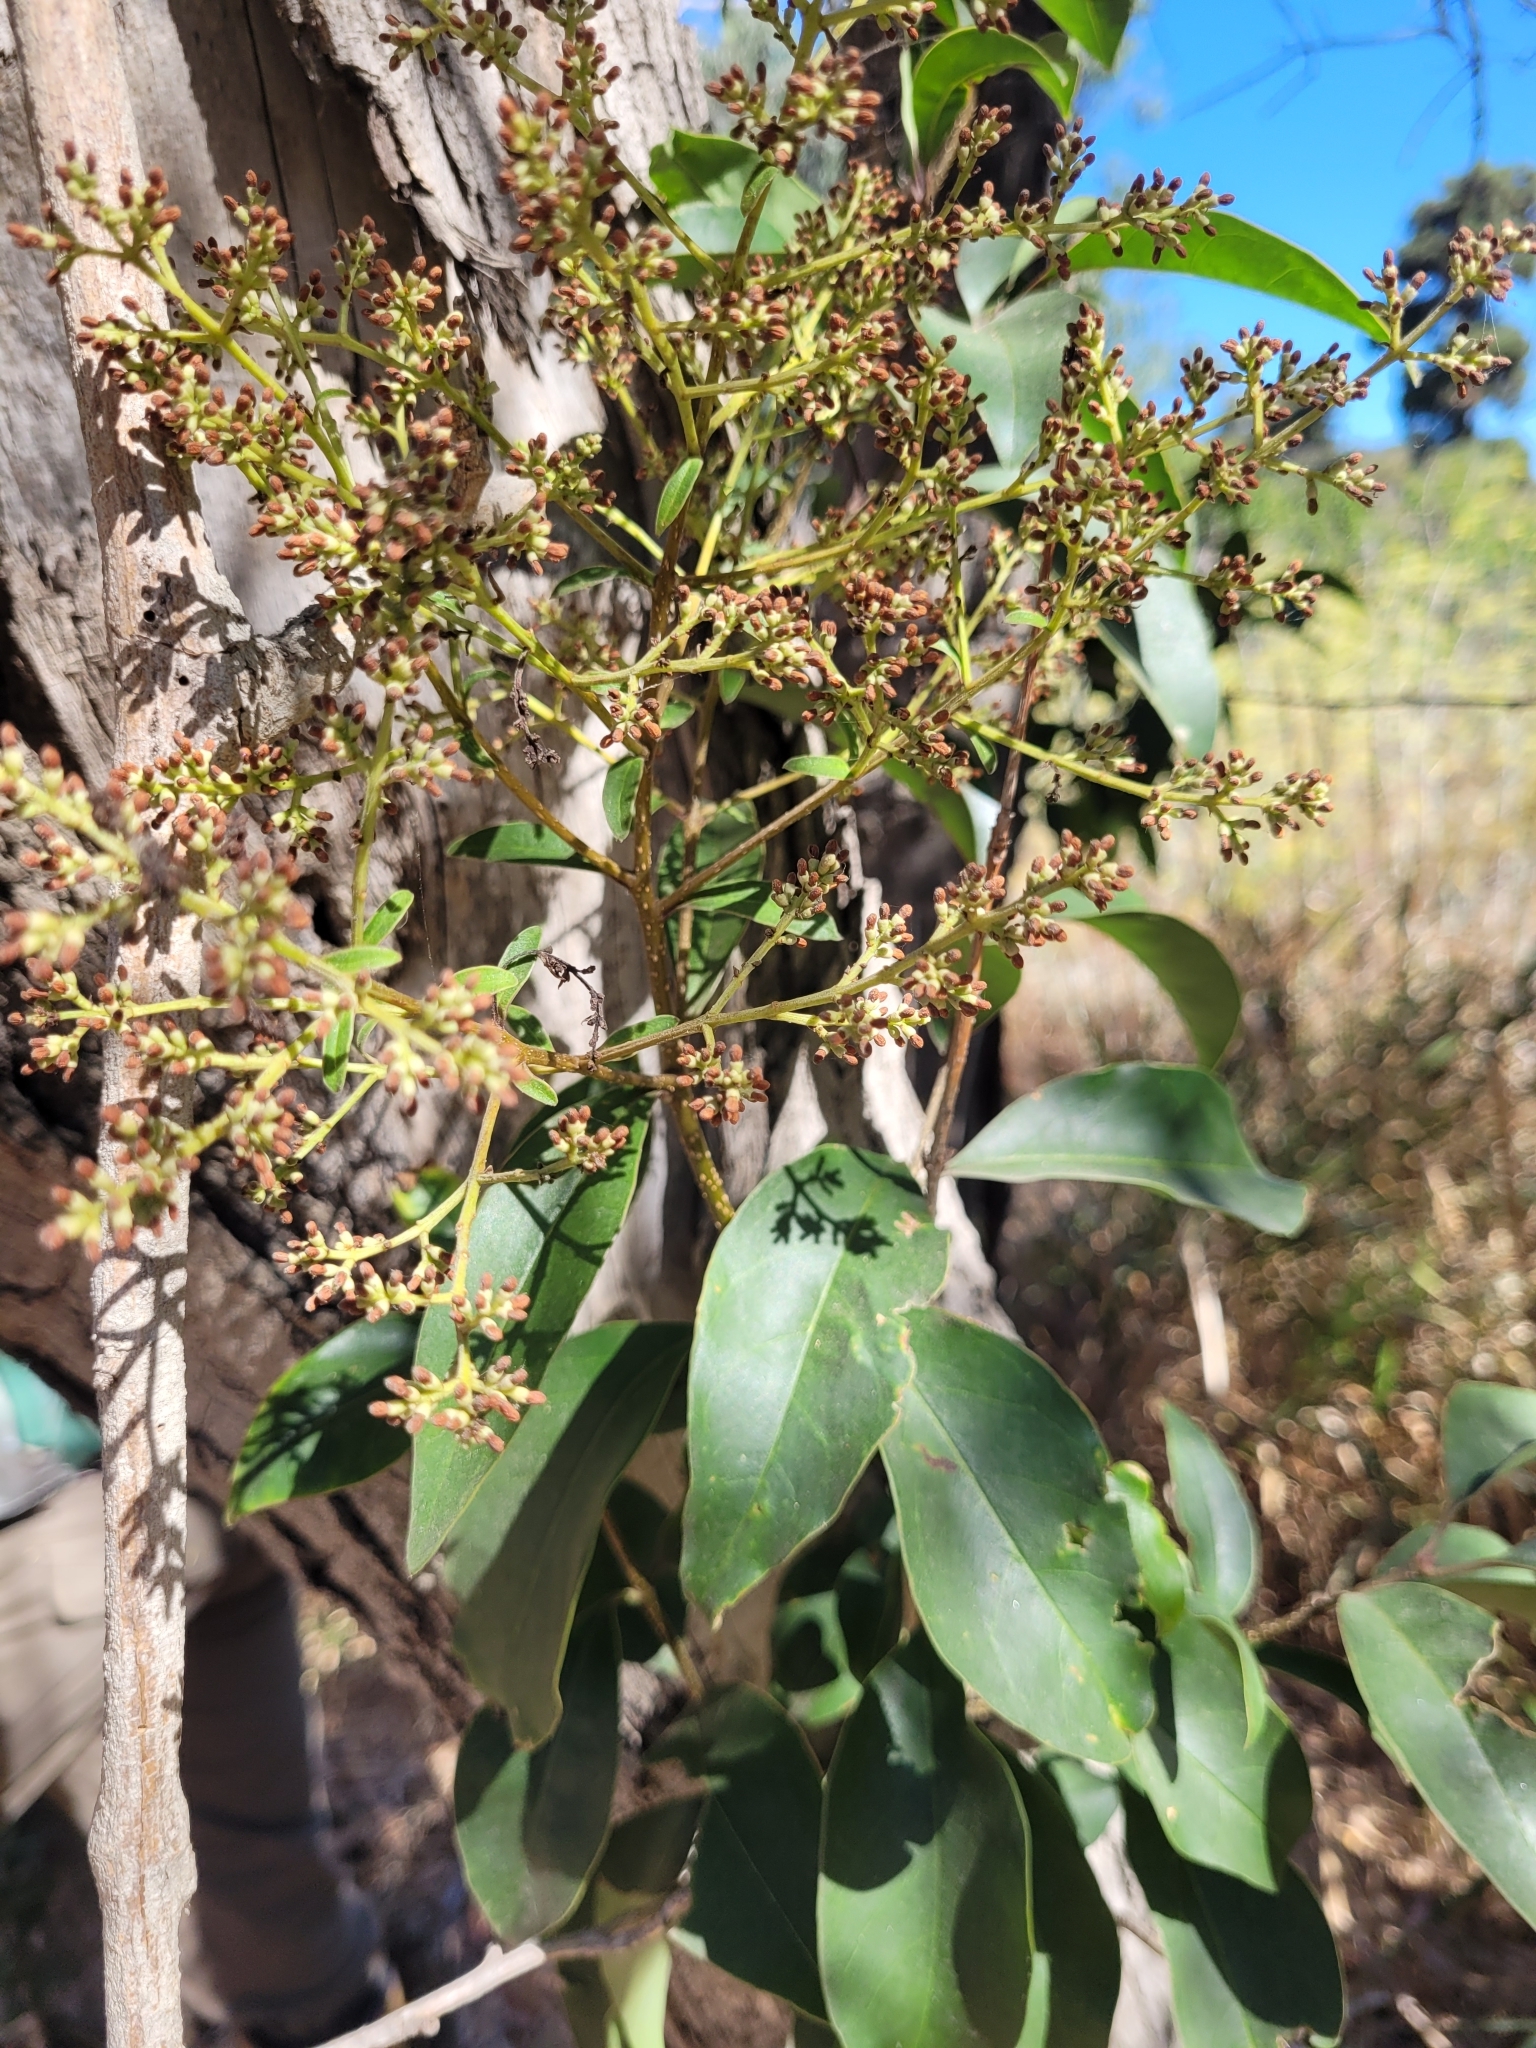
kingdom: Plantae
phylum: Tracheophyta
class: Magnoliopsida
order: Lamiales
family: Oleaceae
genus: Ligustrum
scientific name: Ligustrum lucidum
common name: Glossy privet
